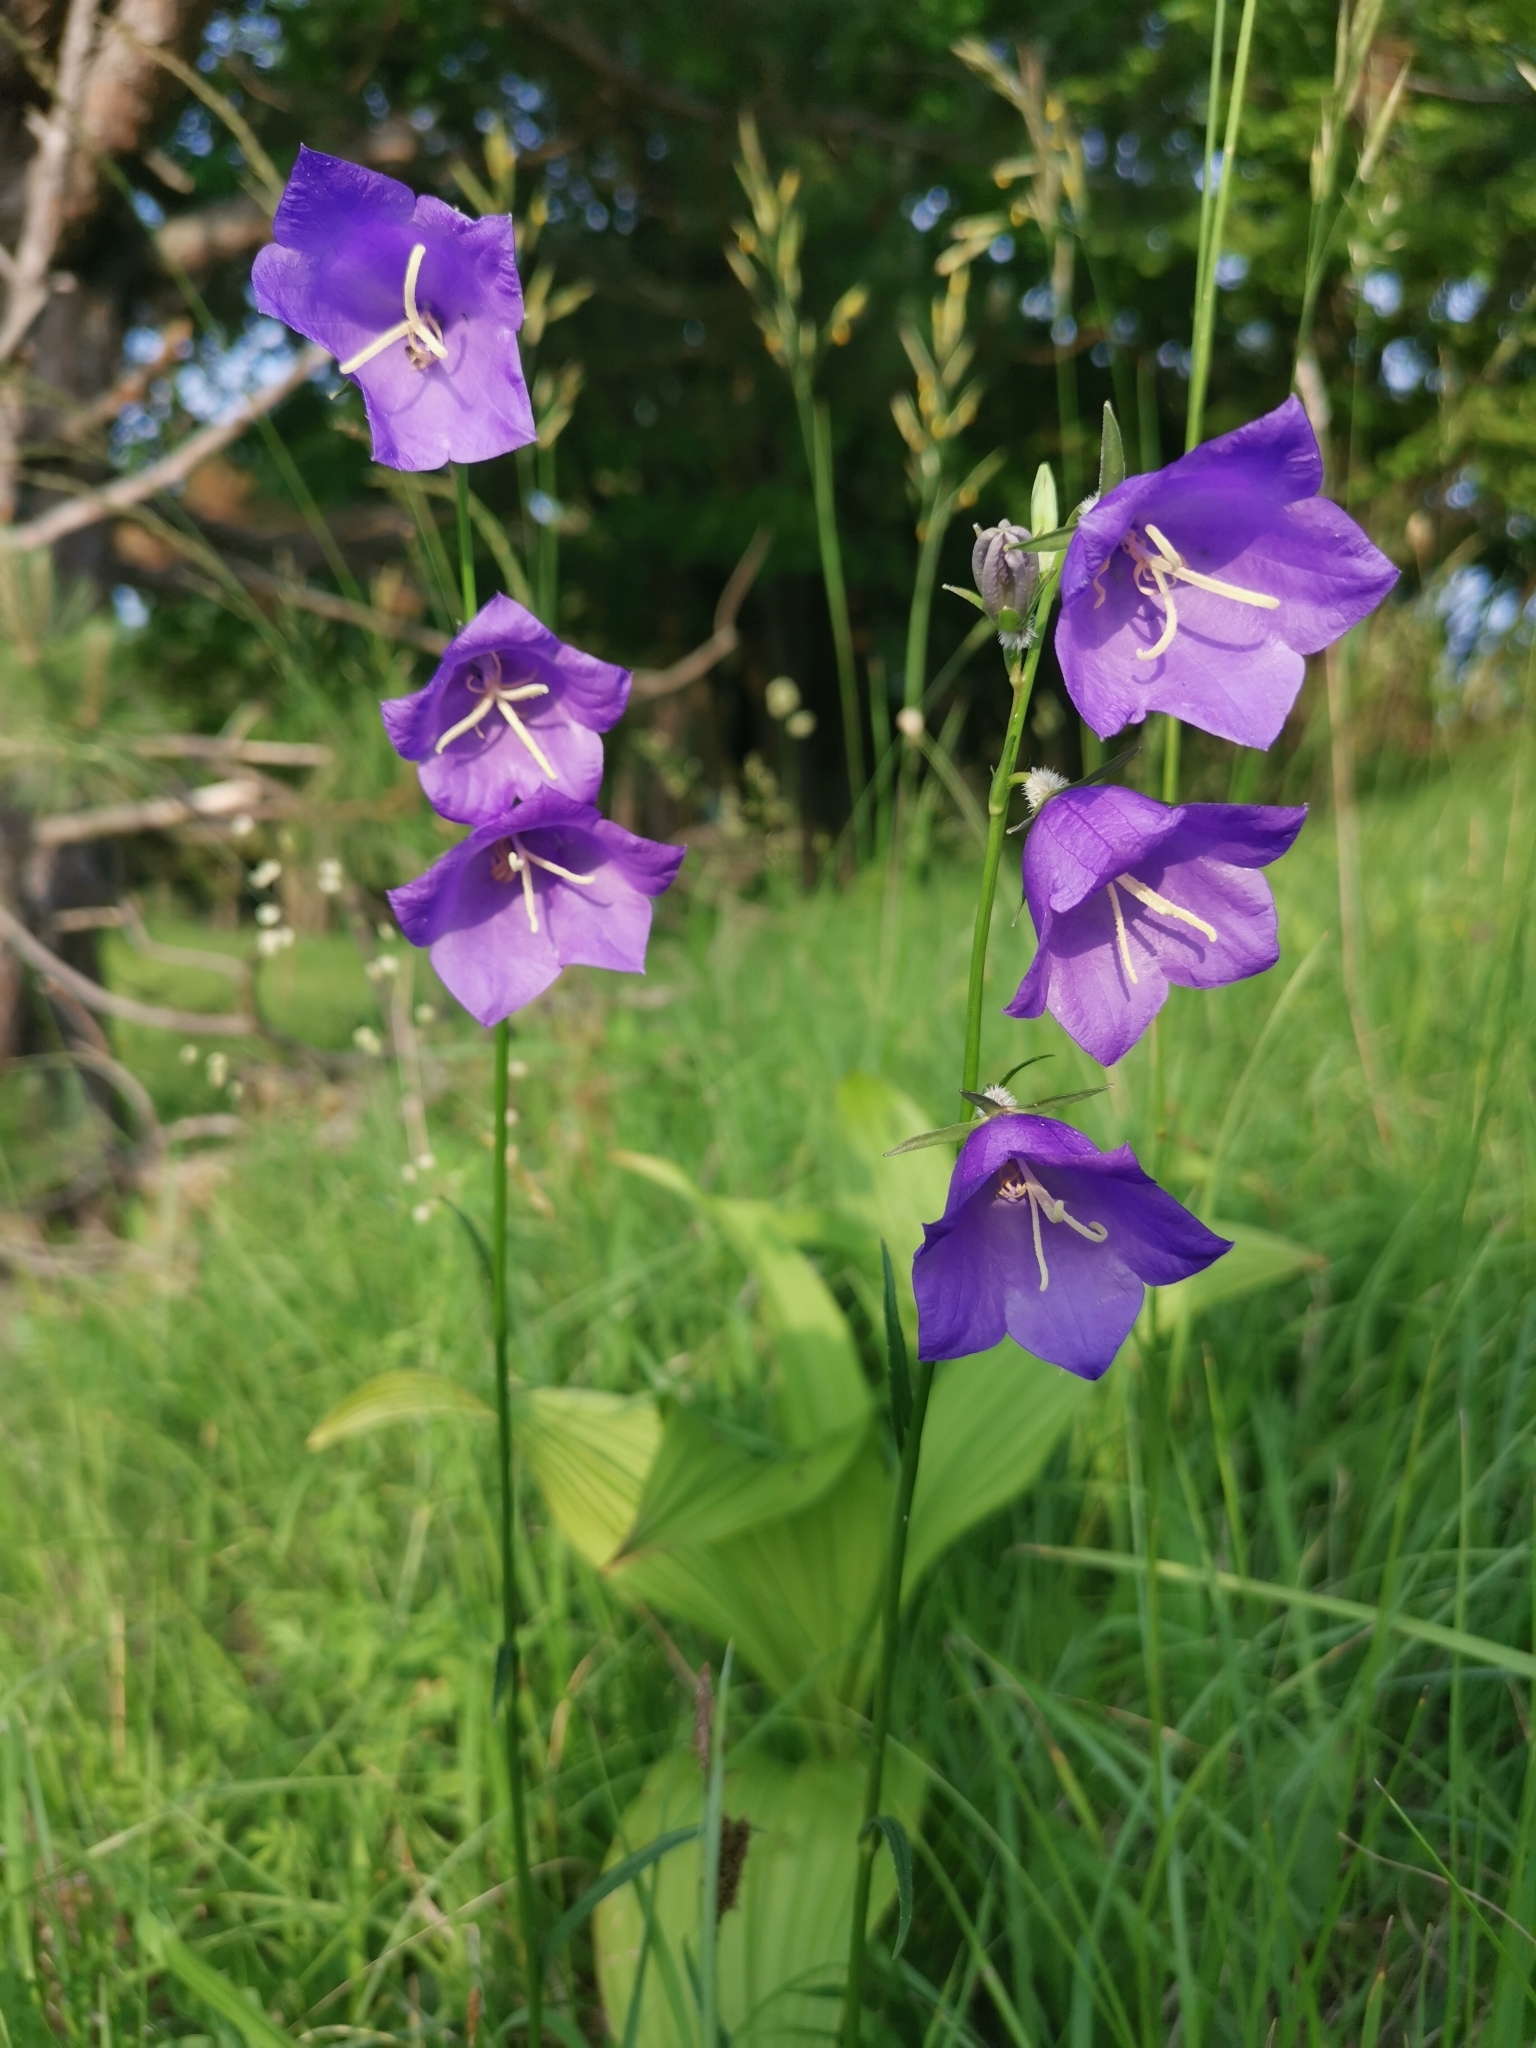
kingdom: Plantae
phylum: Tracheophyta
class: Magnoliopsida
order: Asterales
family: Campanulaceae
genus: Campanula
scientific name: Campanula persicifolia
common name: Peach-leaved bellflower
